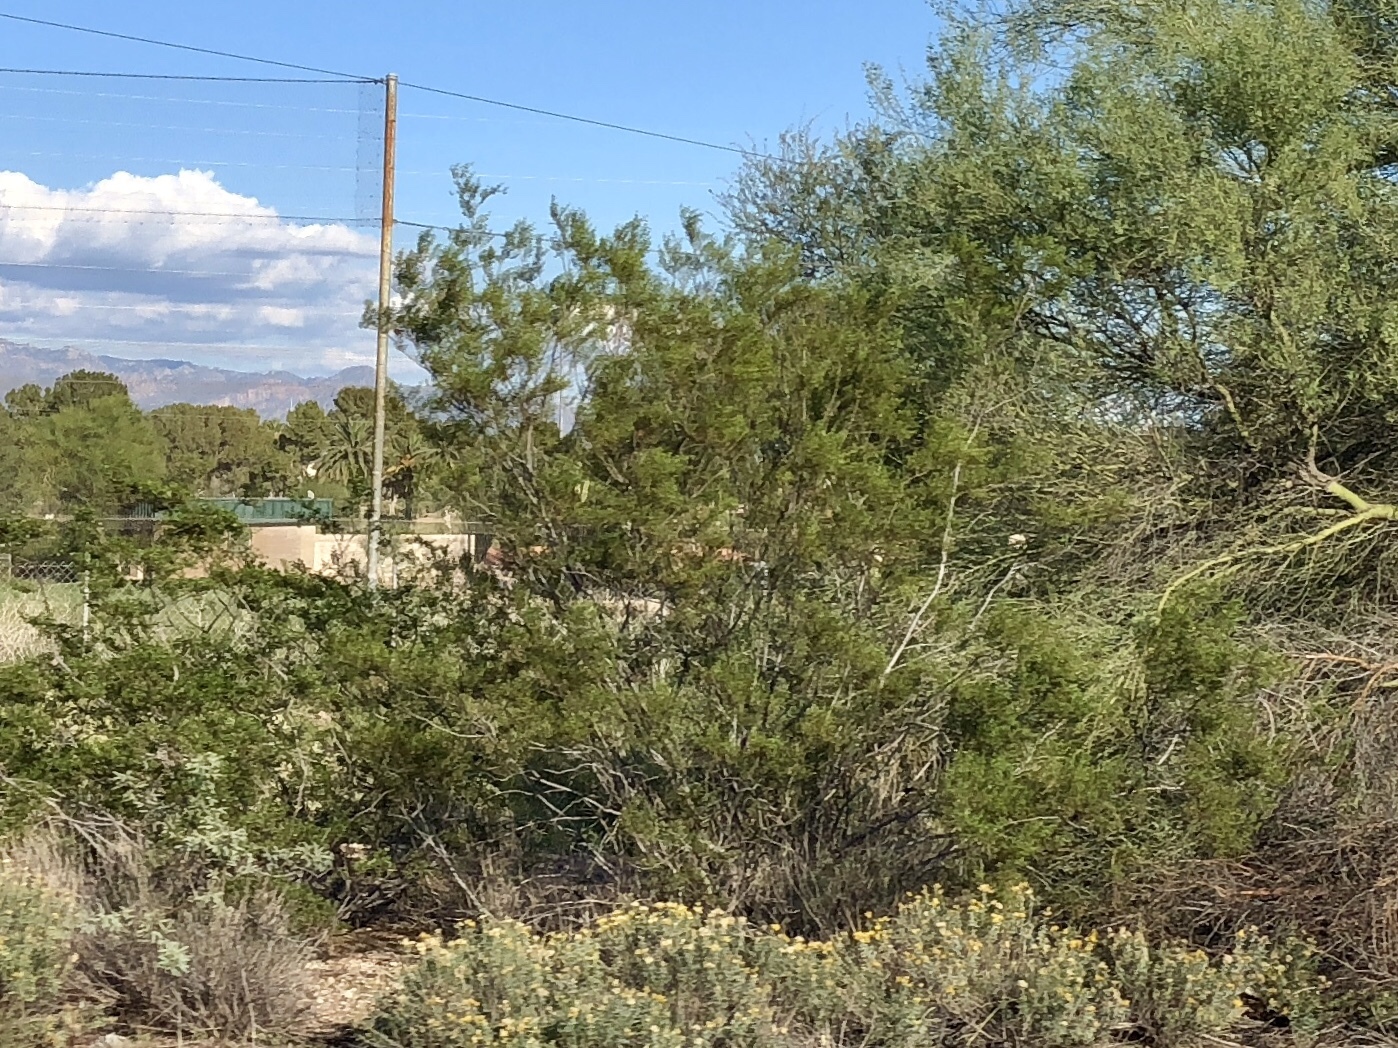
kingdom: Plantae
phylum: Tracheophyta
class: Magnoliopsida
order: Zygophyllales
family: Zygophyllaceae
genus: Larrea
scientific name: Larrea tridentata
